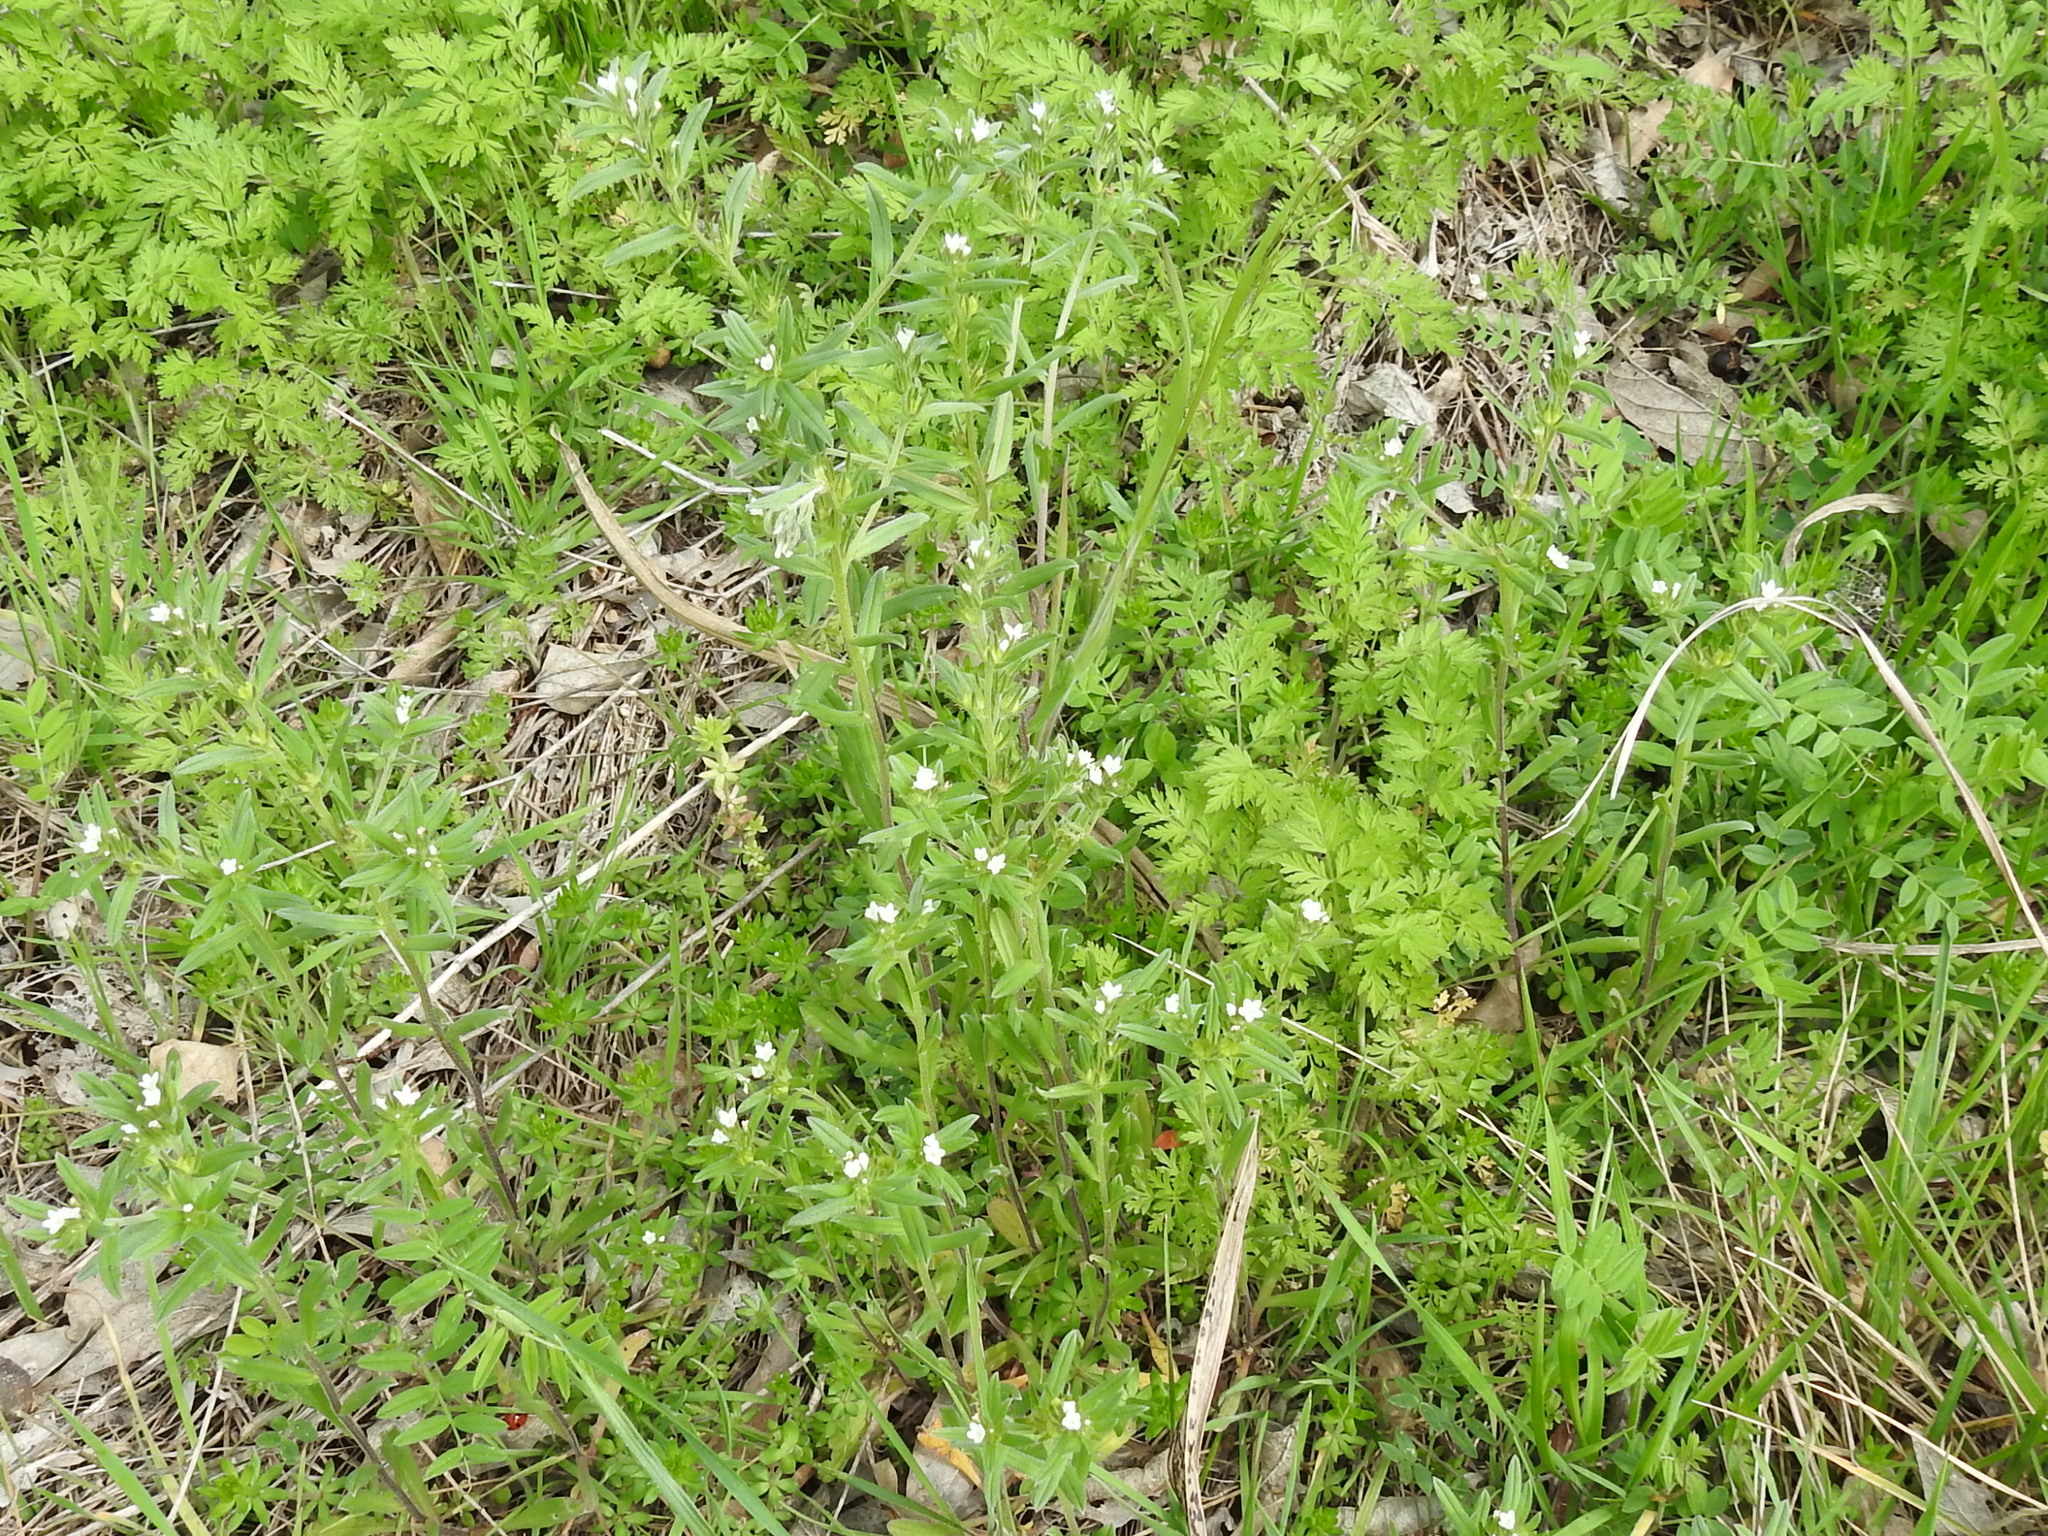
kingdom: Plantae
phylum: Tracheophyta
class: Magnoliopsida
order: Boraginales
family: Boraginaceae
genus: Buglossoides
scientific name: Buglossoides arvensis
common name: Corn gromwell
